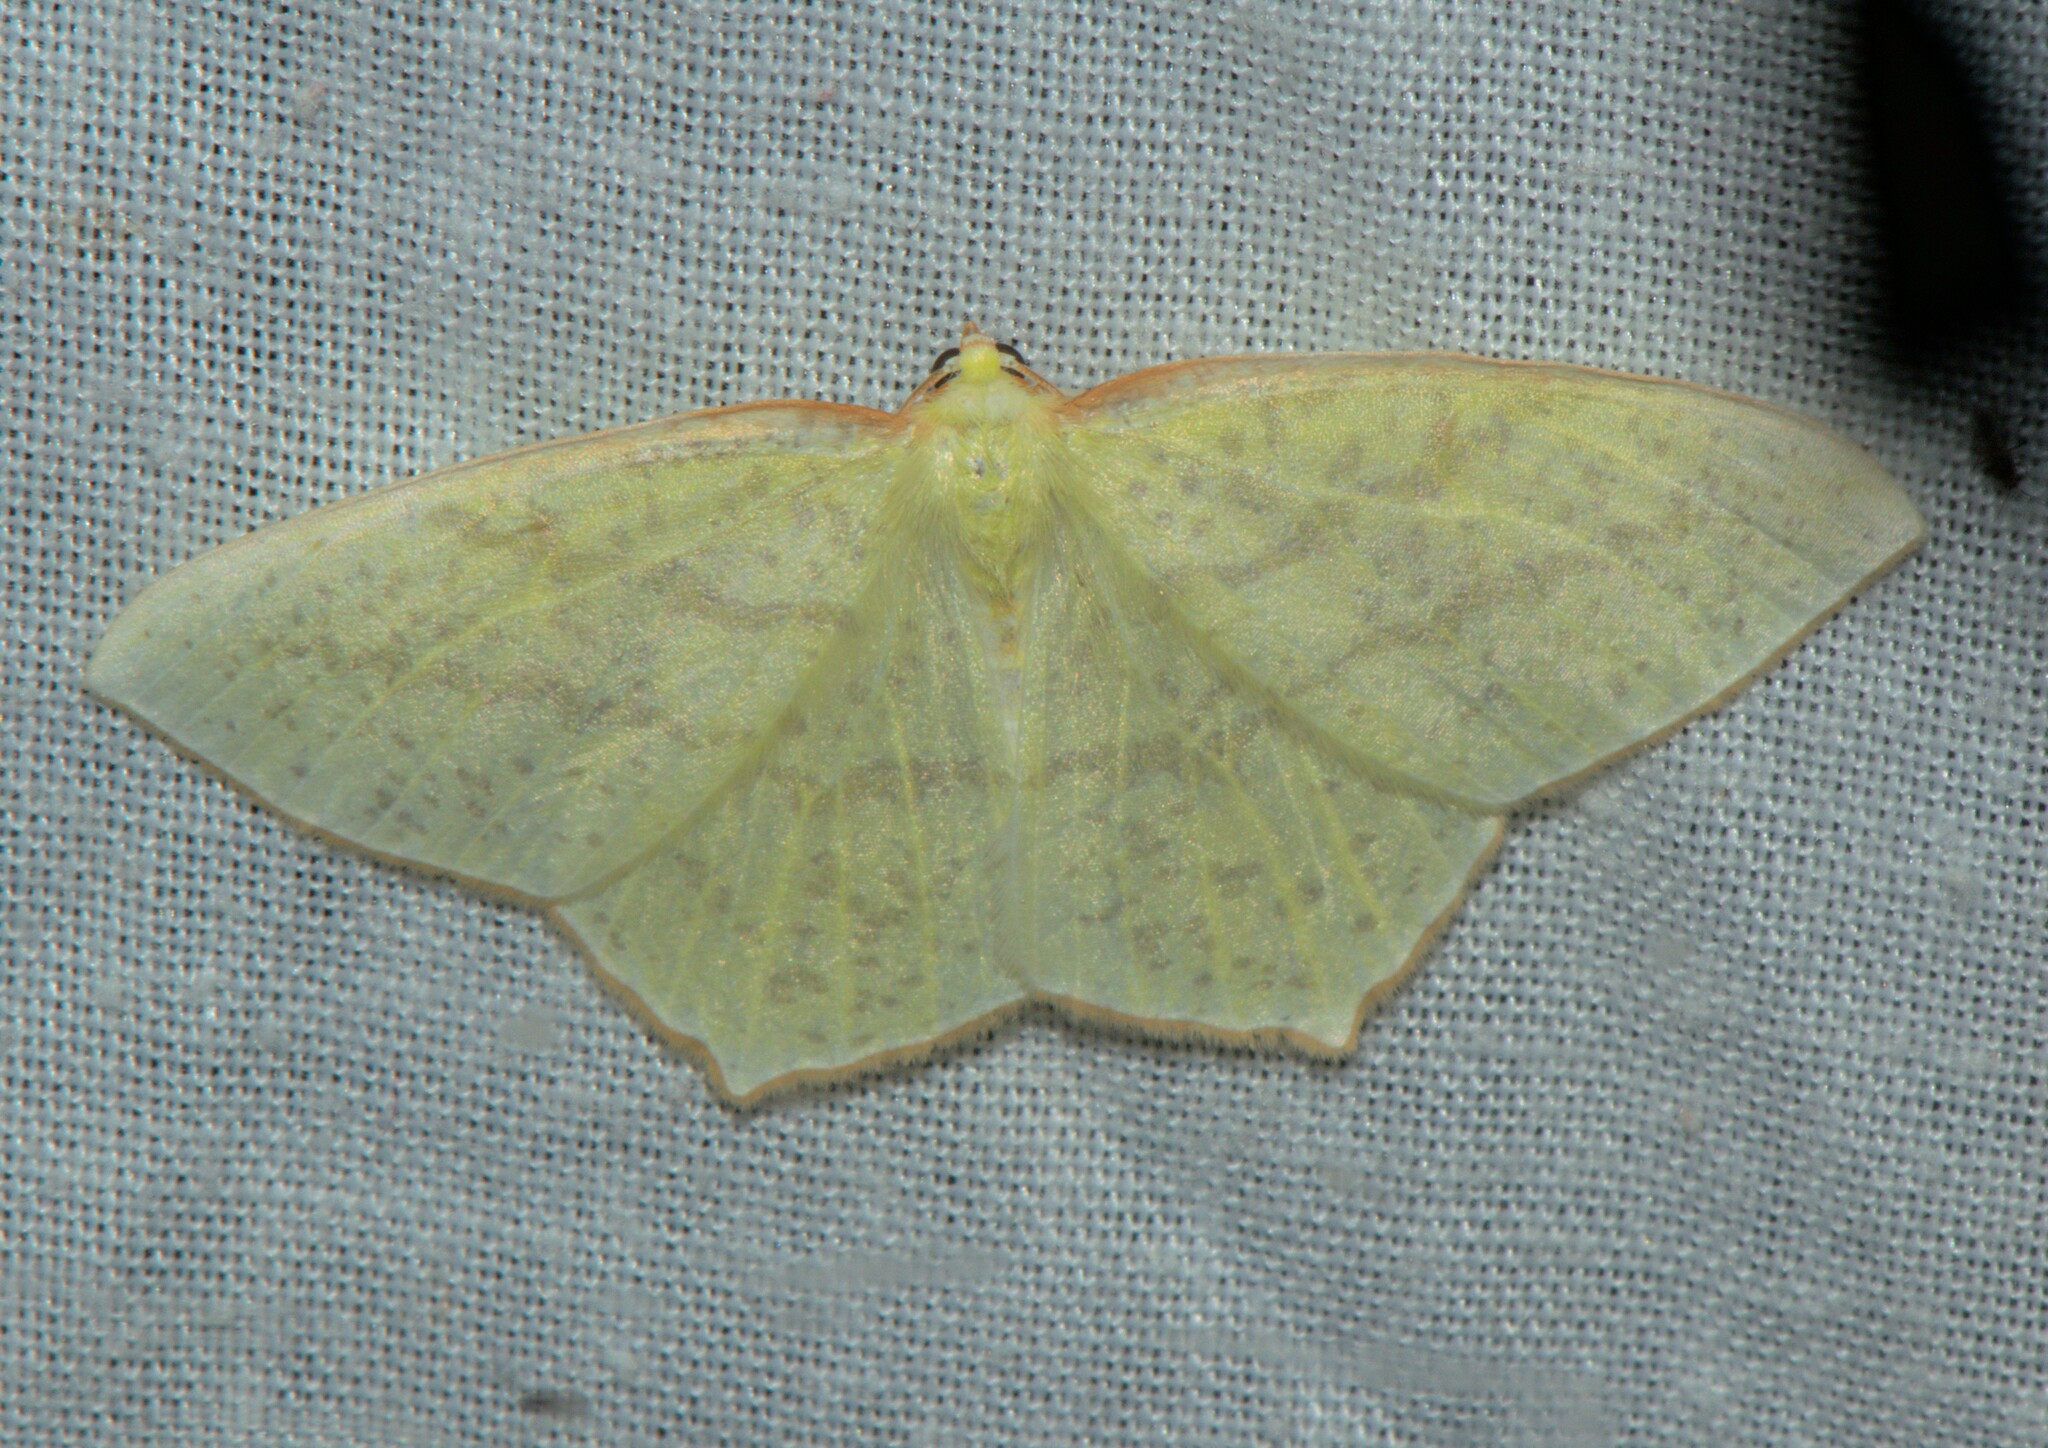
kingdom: Animalia
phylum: Arthropoda
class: Insecta
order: Lepidoptera
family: Geometridae
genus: Sirinopteryx
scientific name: Sirinopteryx rufivinctata
